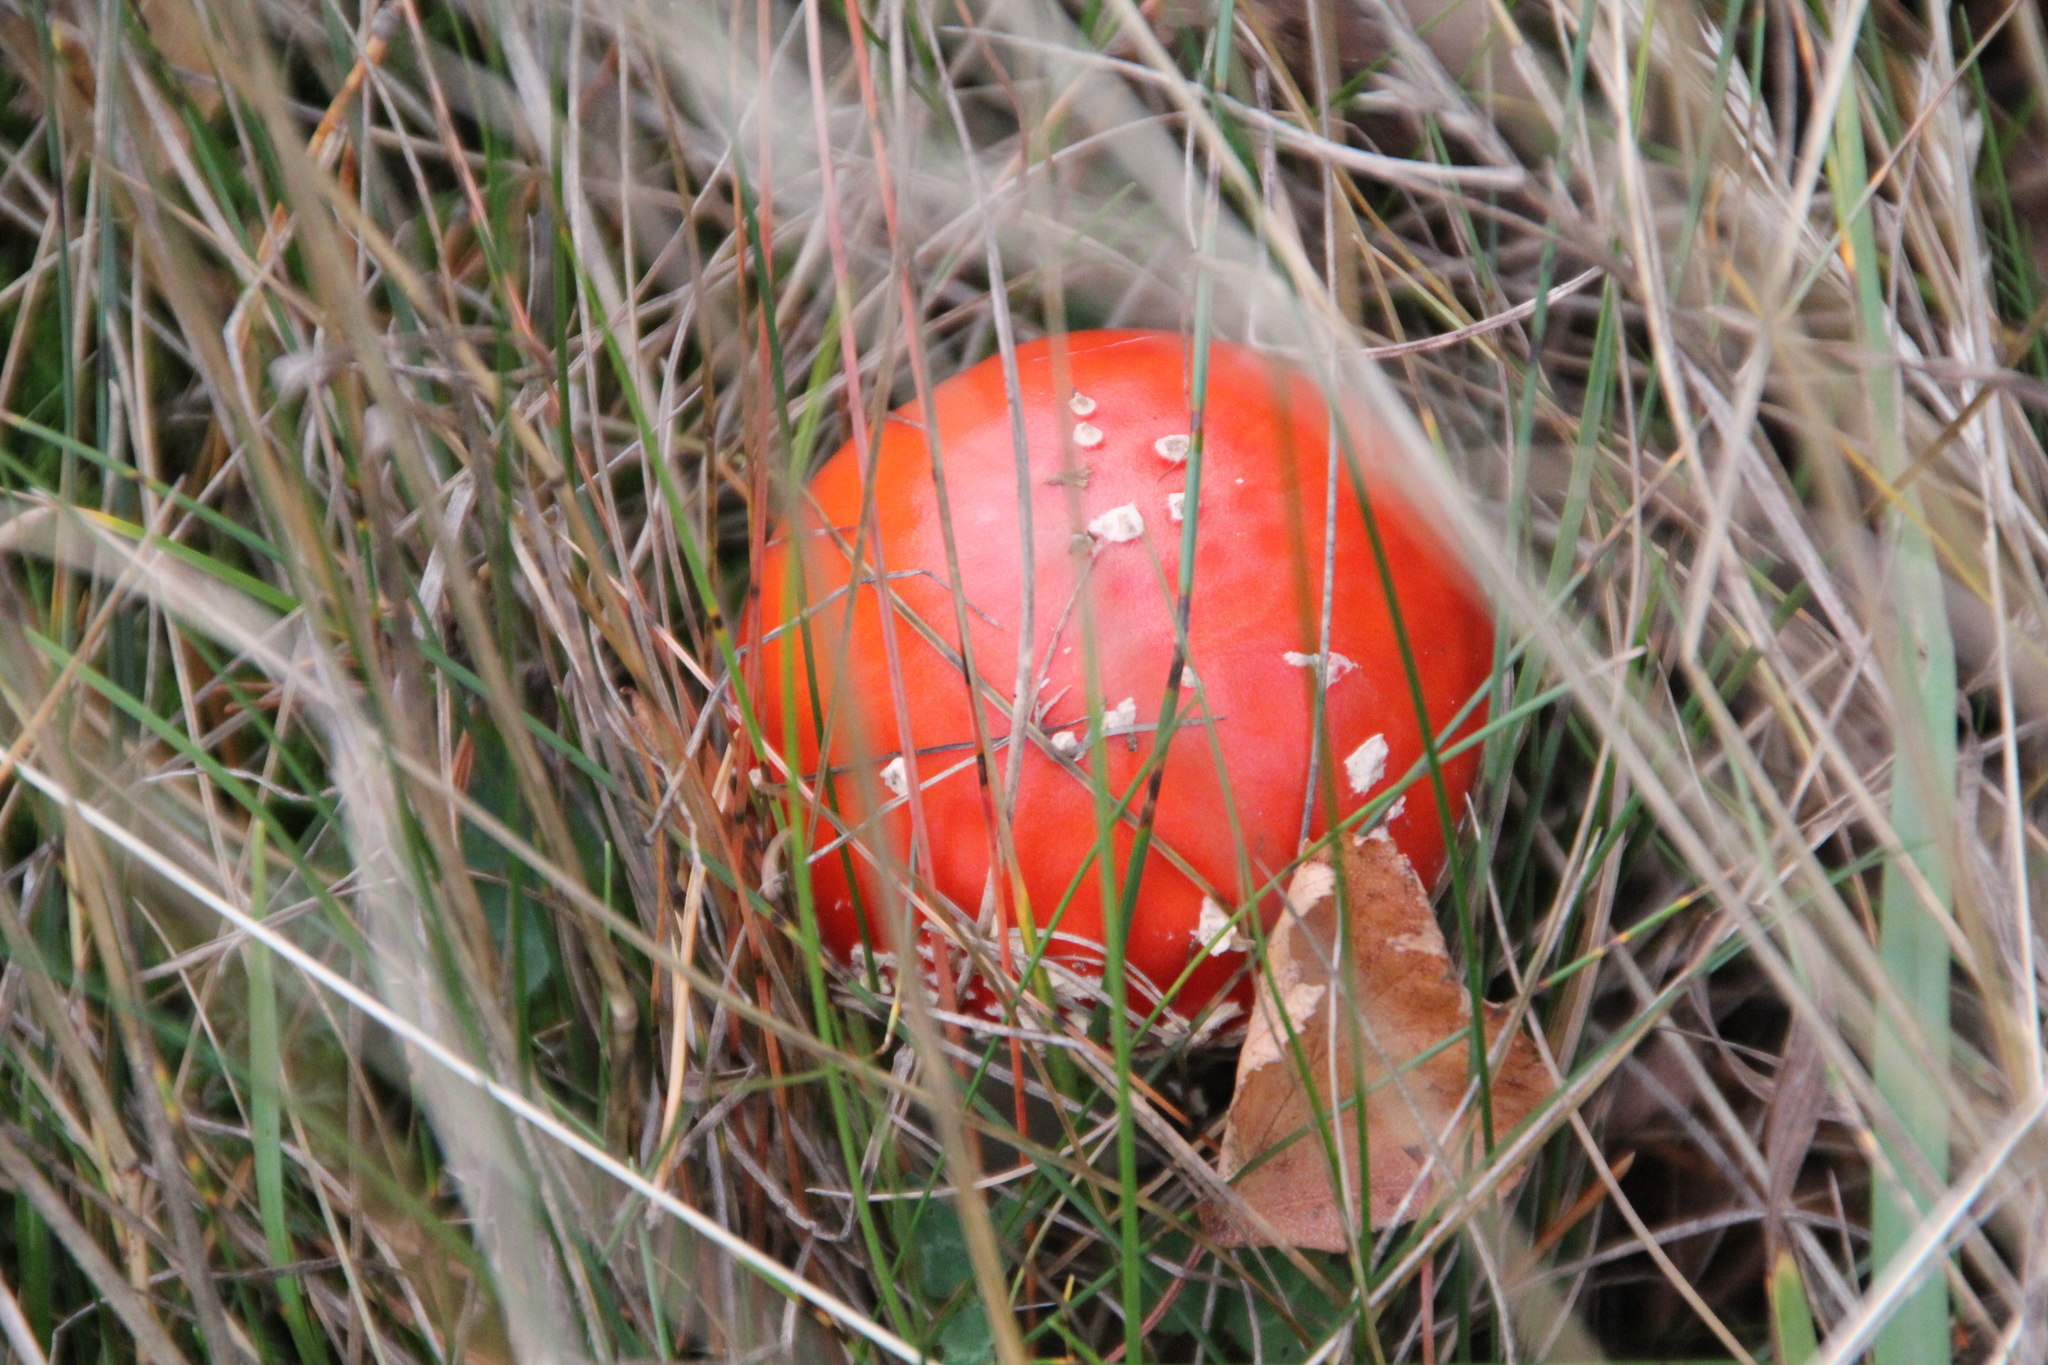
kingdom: Fungi
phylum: Basidiomycota
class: Agaricomycetes
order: Agaricales
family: Amanitaceae
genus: Amanita
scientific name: Amanita muscaria
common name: Fly agaric
